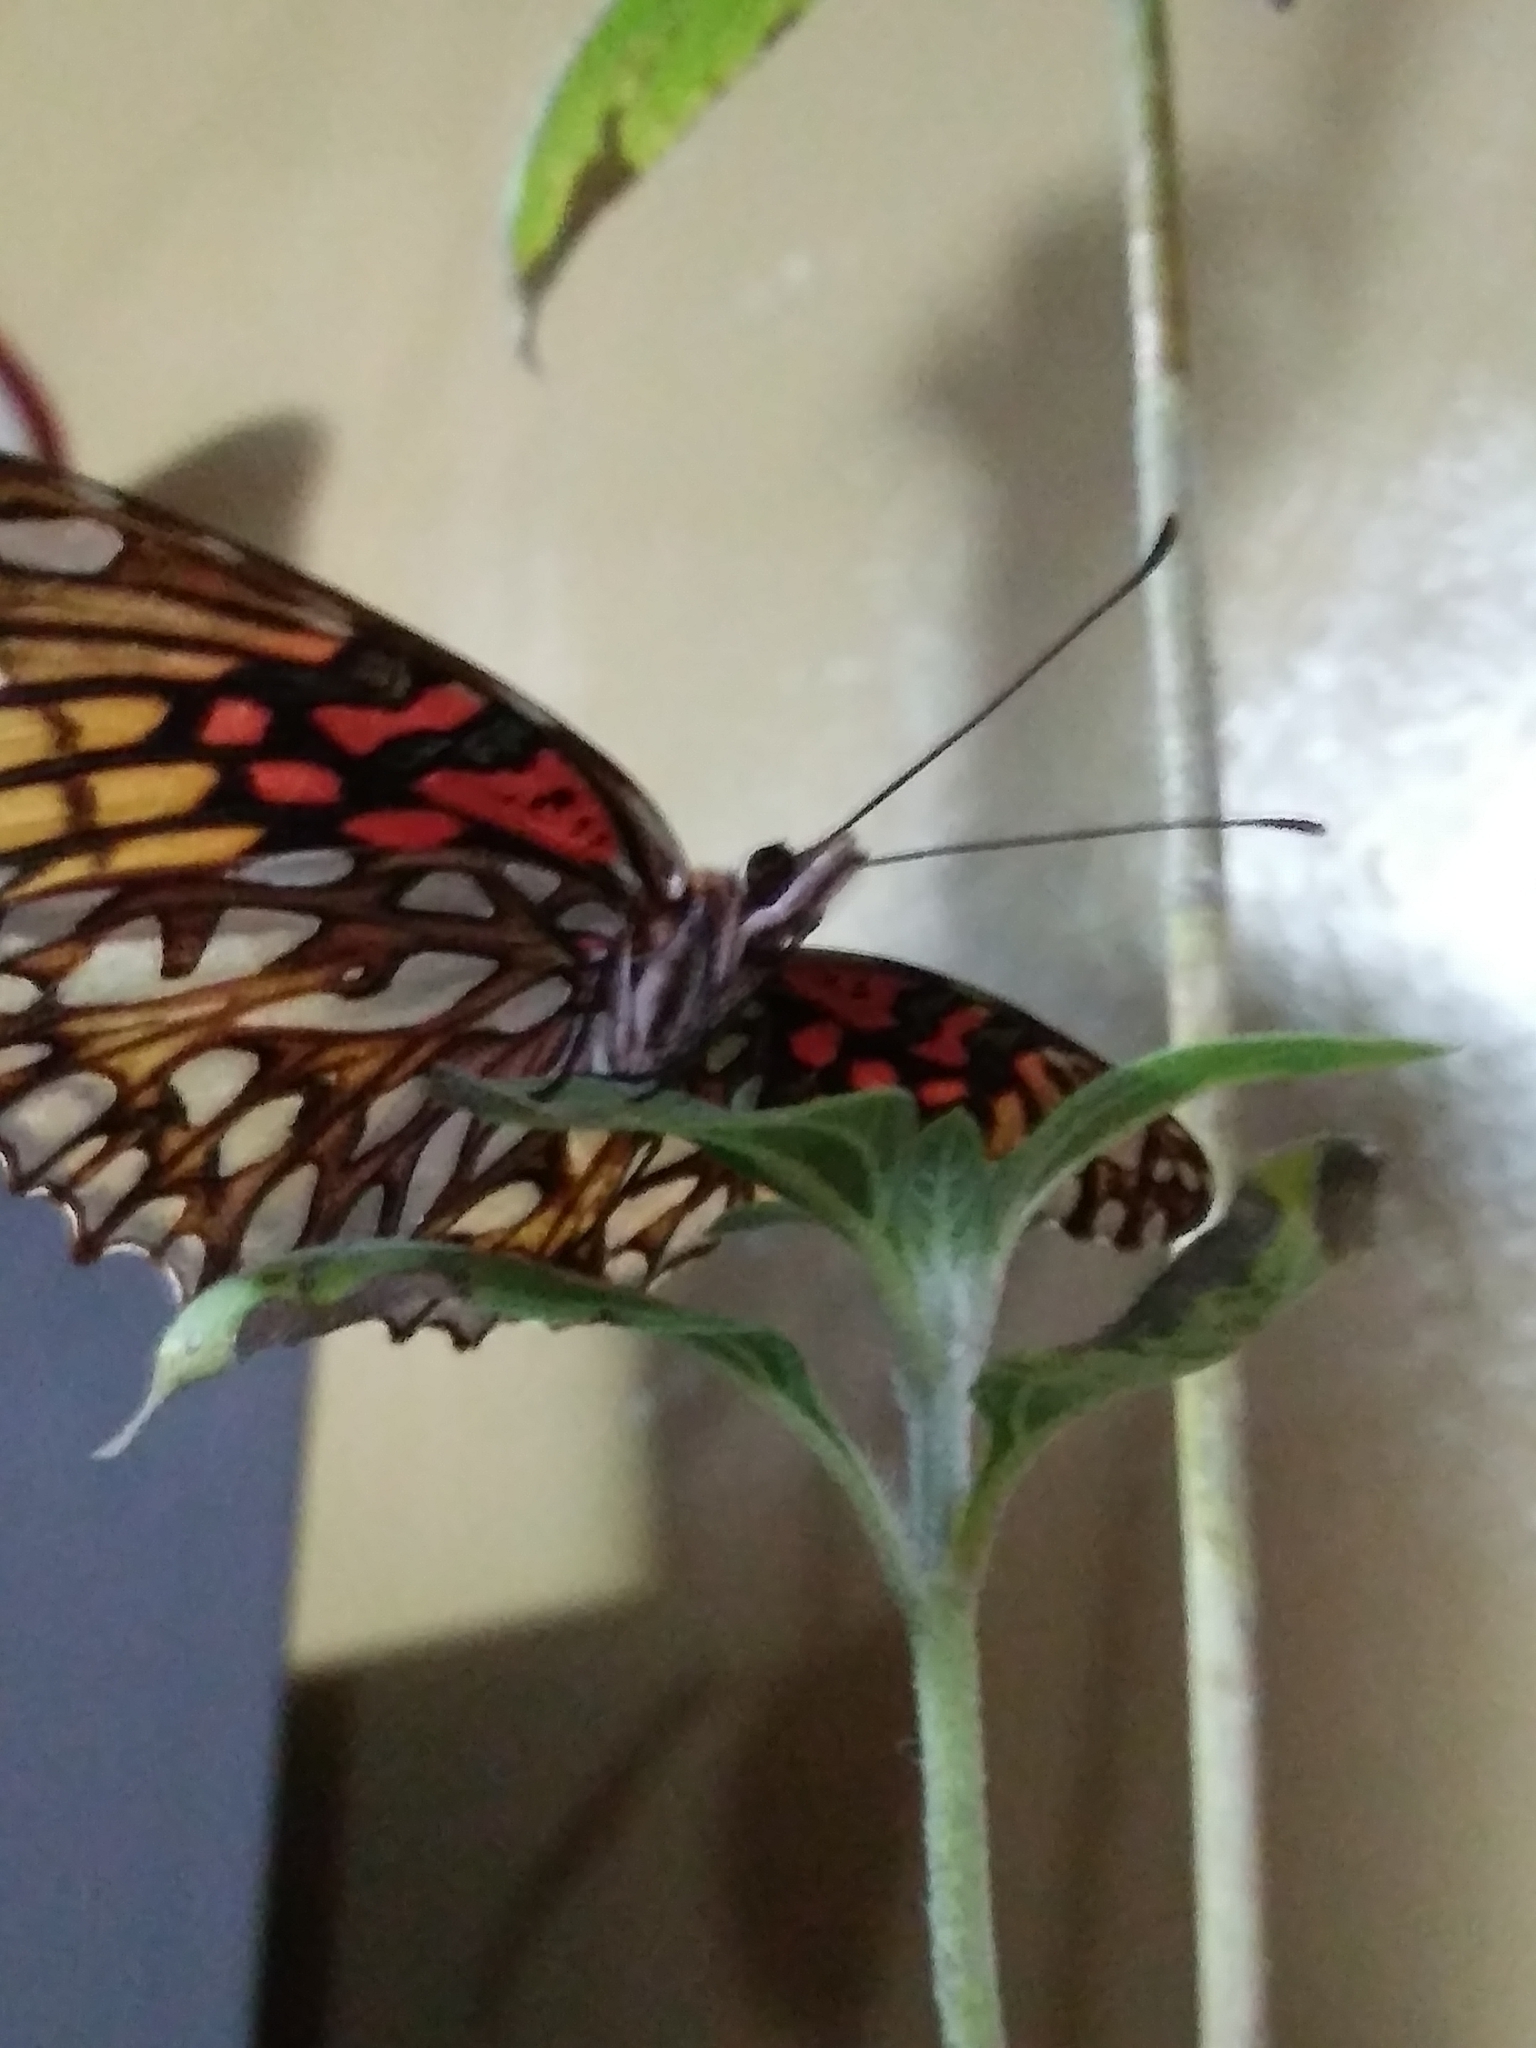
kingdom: Animalia
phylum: Arthropoda
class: Insecta
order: Lepidoptera
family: Nymphalidae
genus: Dione
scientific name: Dione moneta
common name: Mexican silverspot
